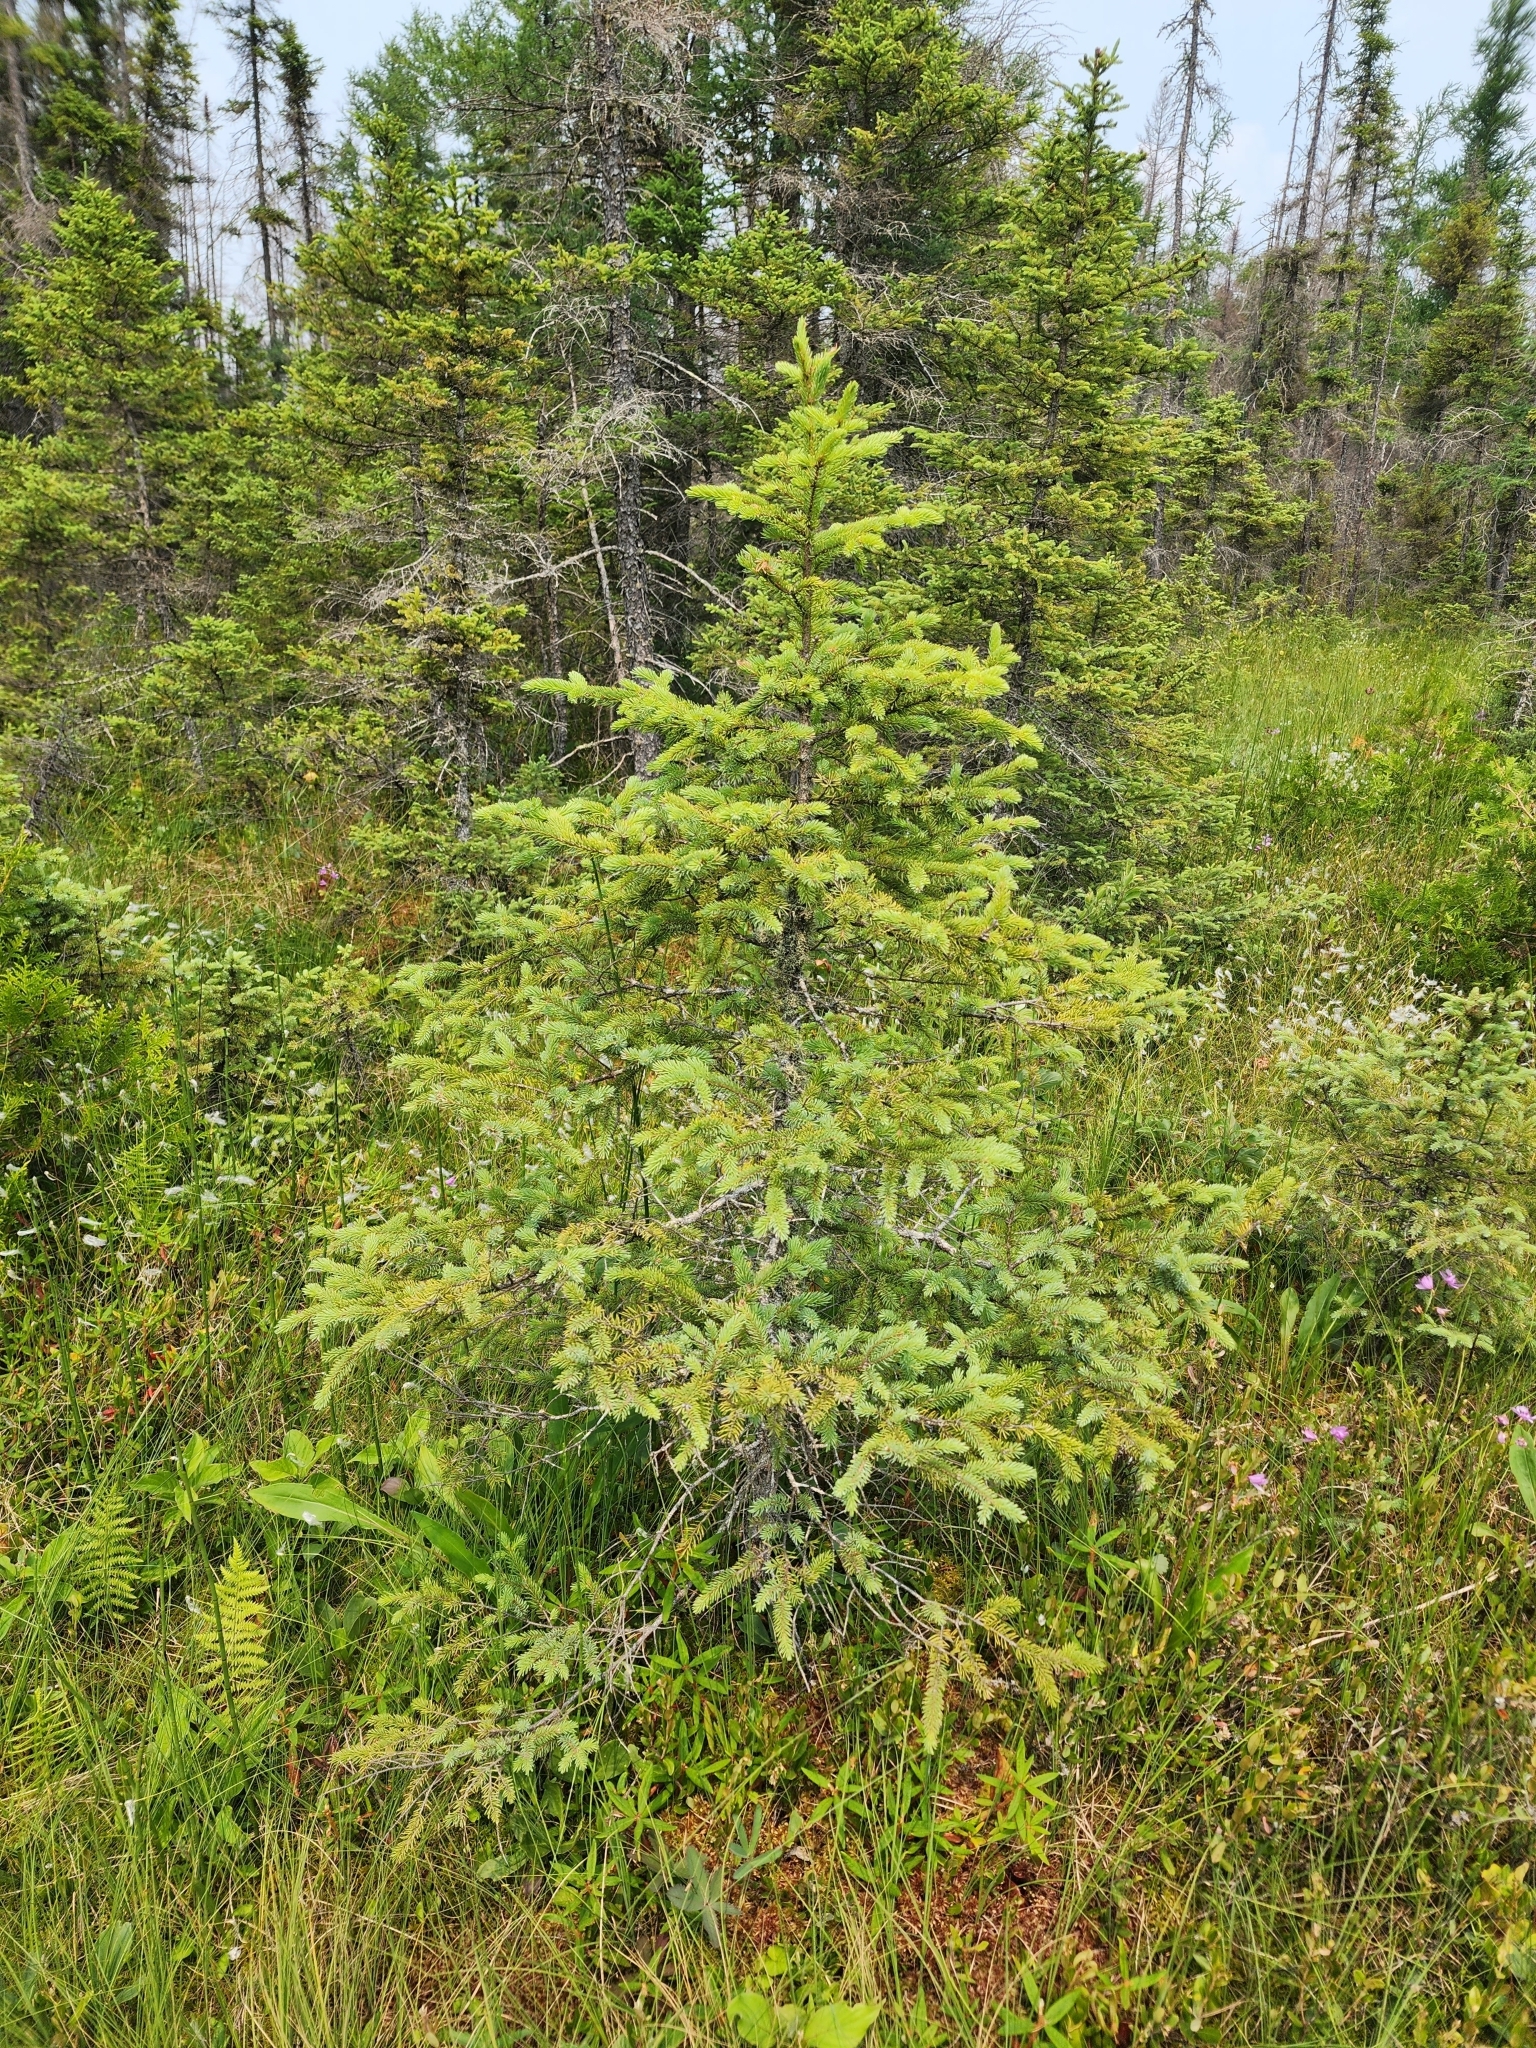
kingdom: Plantae
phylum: Tracheophyta
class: Pinopsida
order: Pinales
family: Pinaceae
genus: Picea
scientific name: Picea mariana
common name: Black spruce
